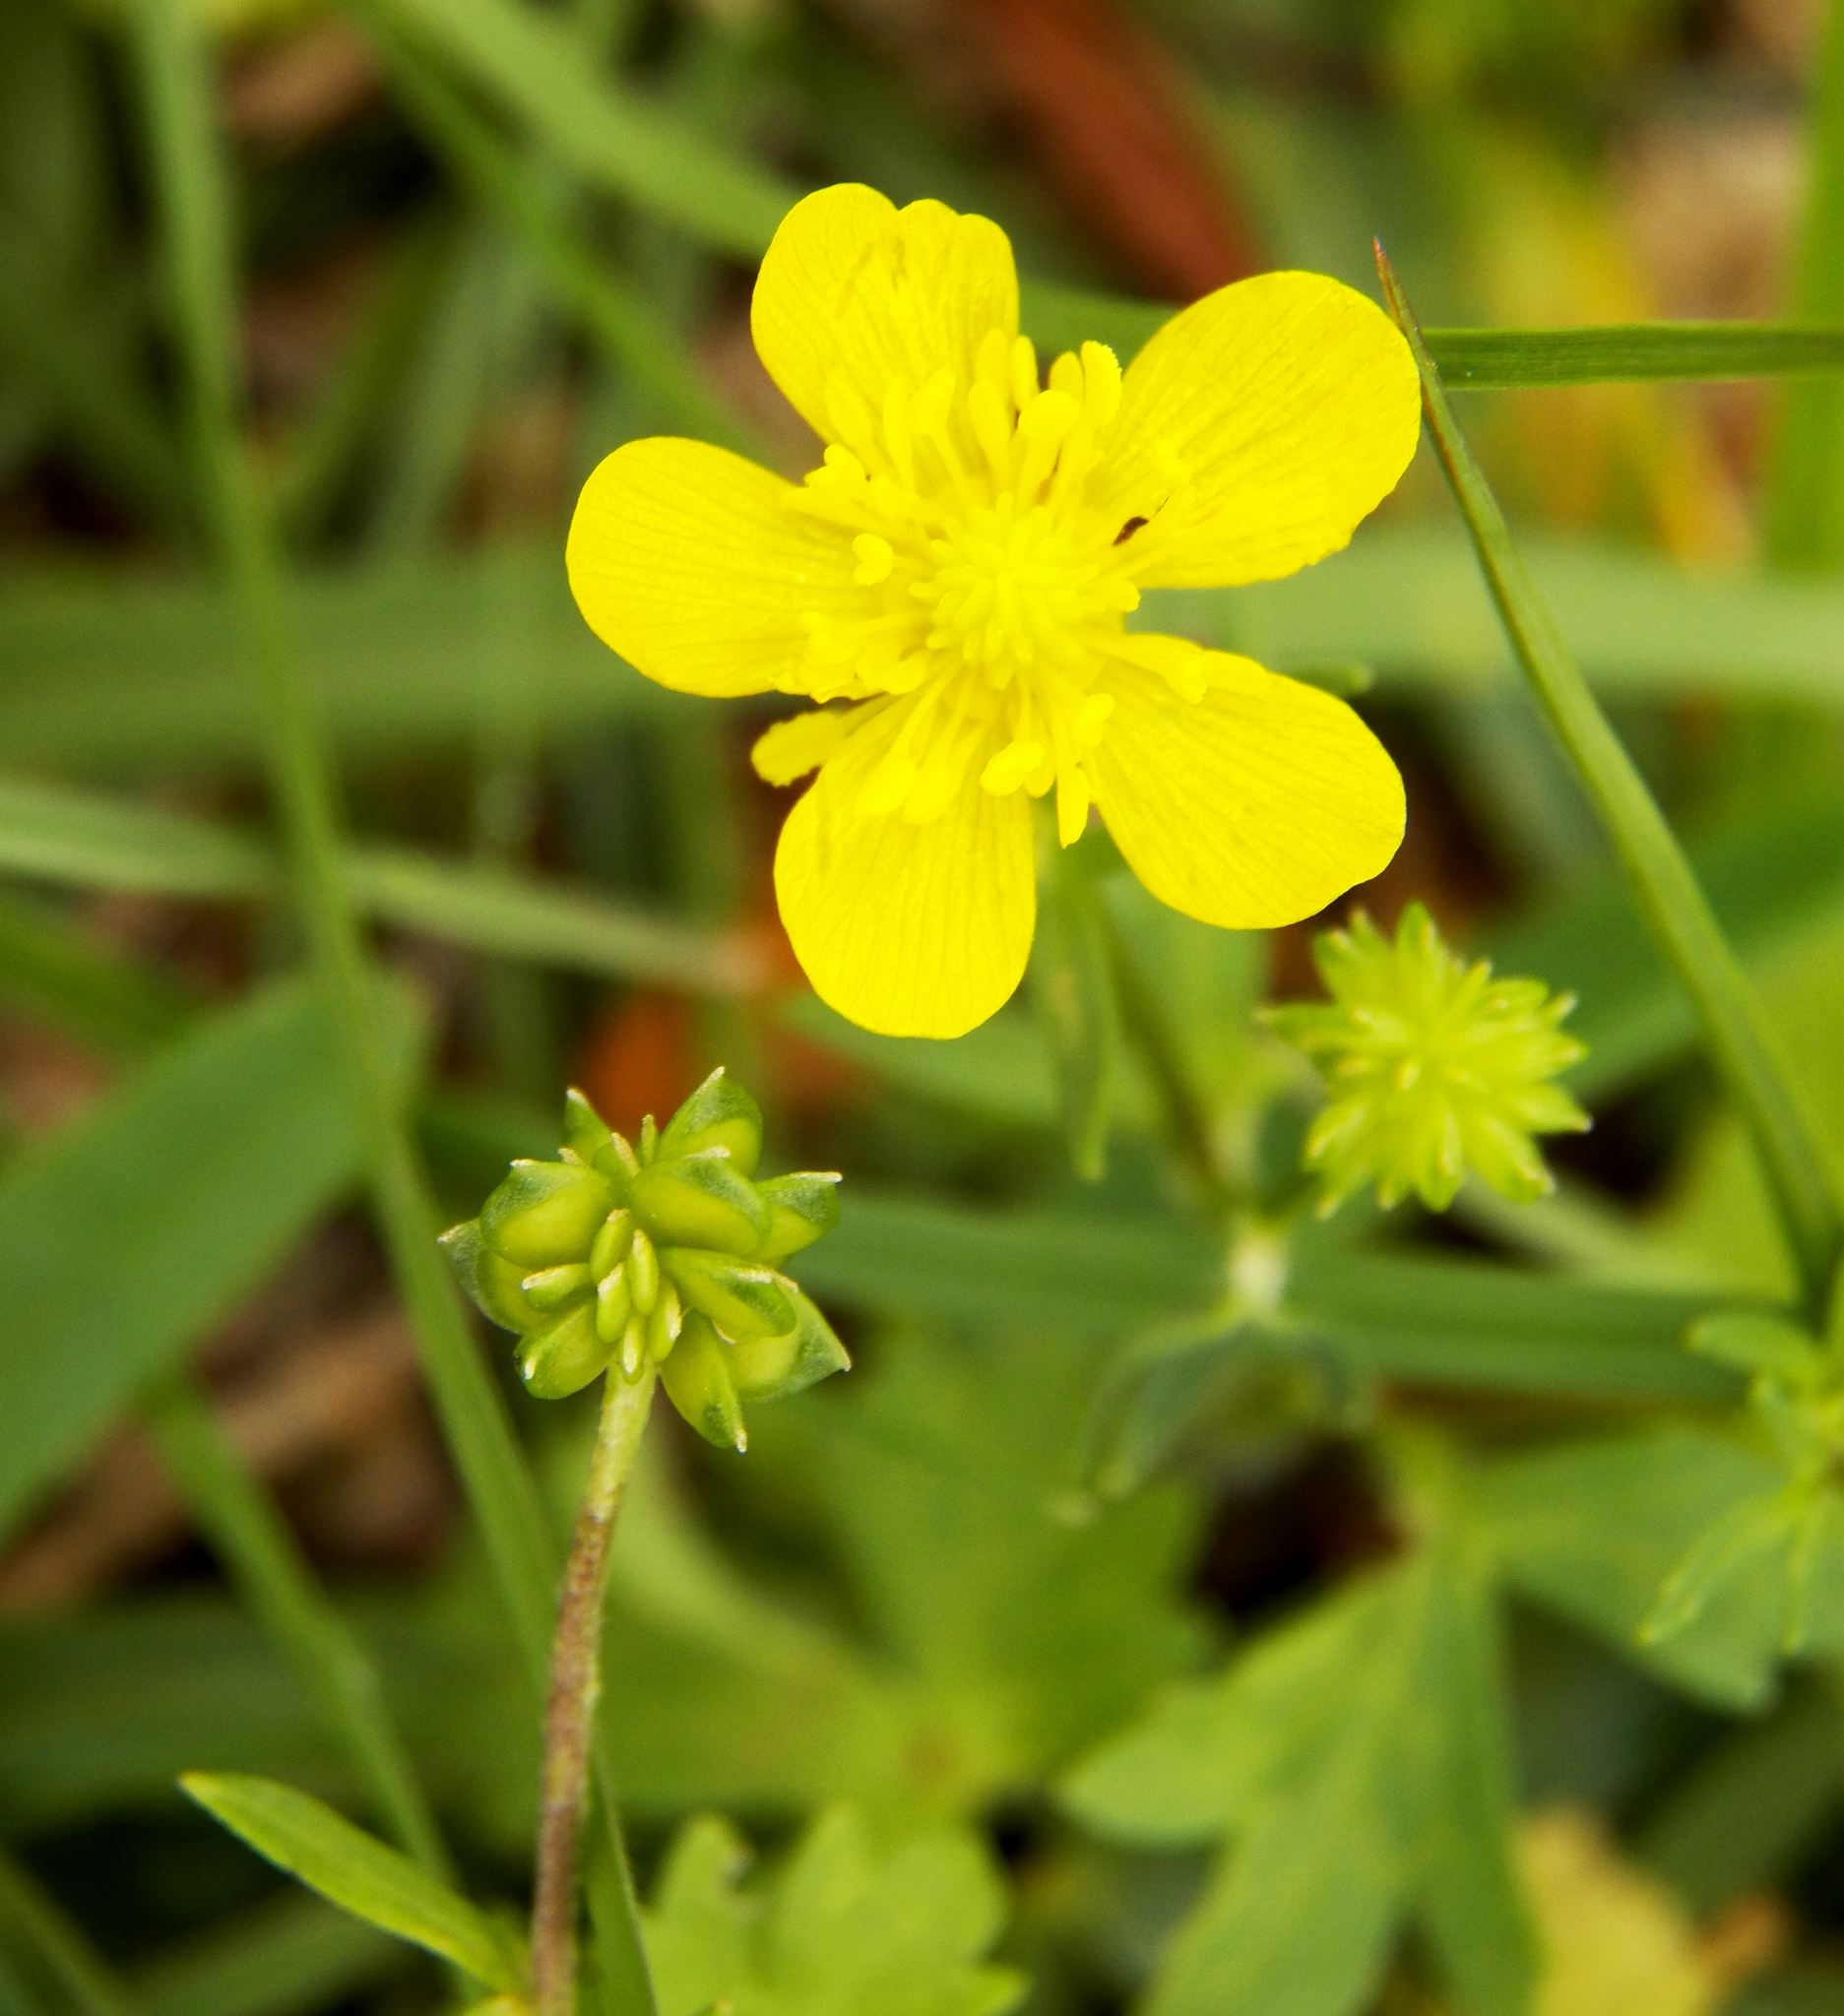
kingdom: Plantae
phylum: Tracheophyta
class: Magnoliopsida
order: Ranunculales
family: Ranunculaceae
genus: Ranunculus
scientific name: Ranunculus sardous
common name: Hairy buttercup
